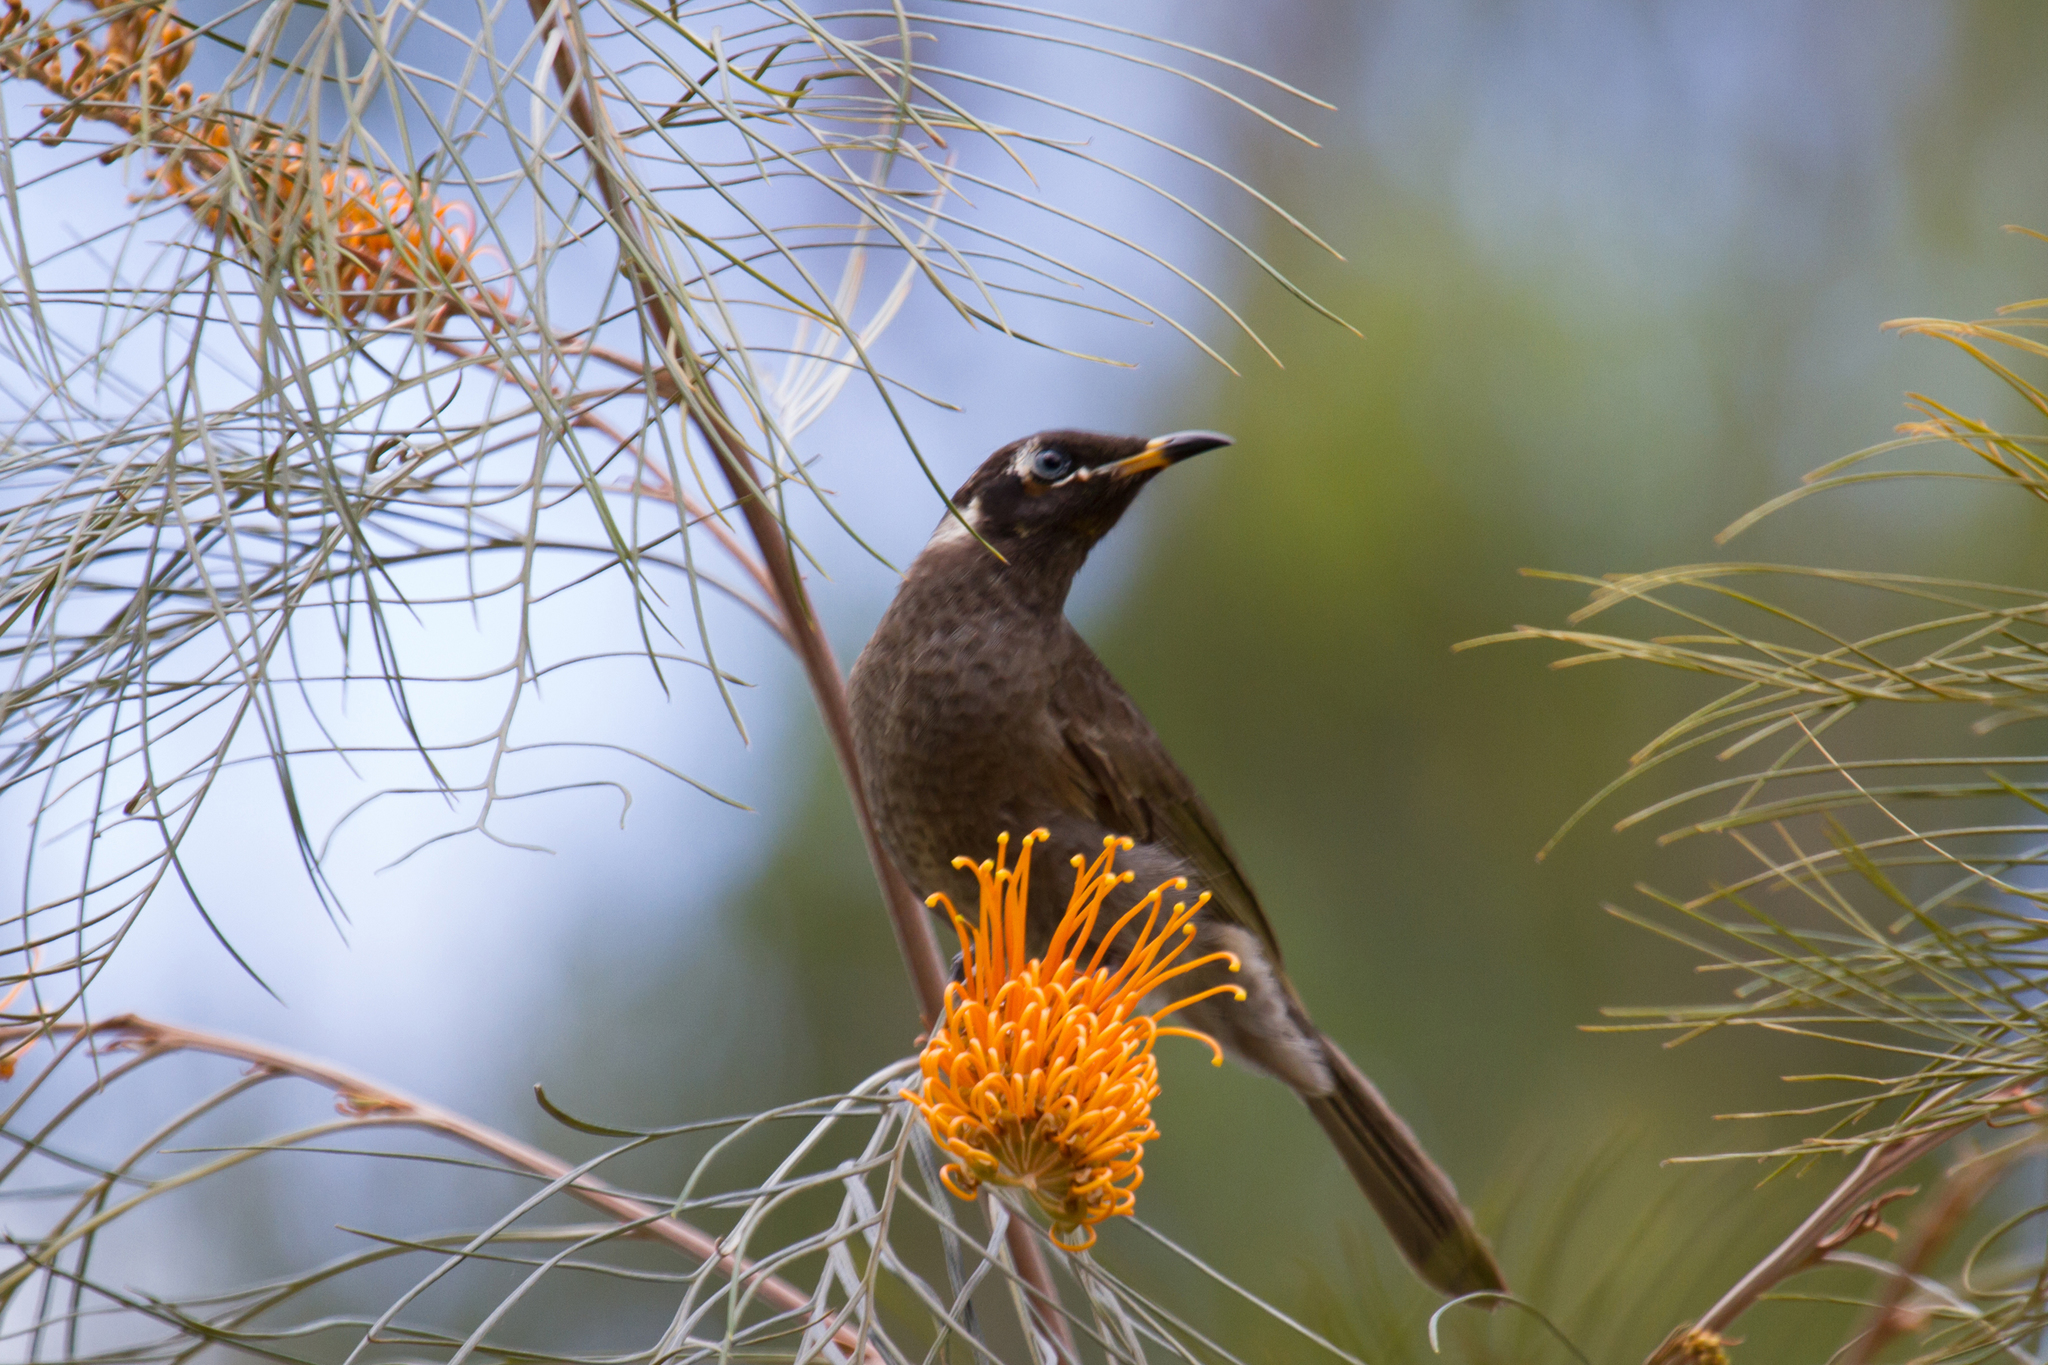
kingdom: Animalia
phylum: Chordata
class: Aves
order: Passeriformes
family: Meliphagidae
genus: Bolemoreus
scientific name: Bolemoreus frenatus
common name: Bridled honeyeater
